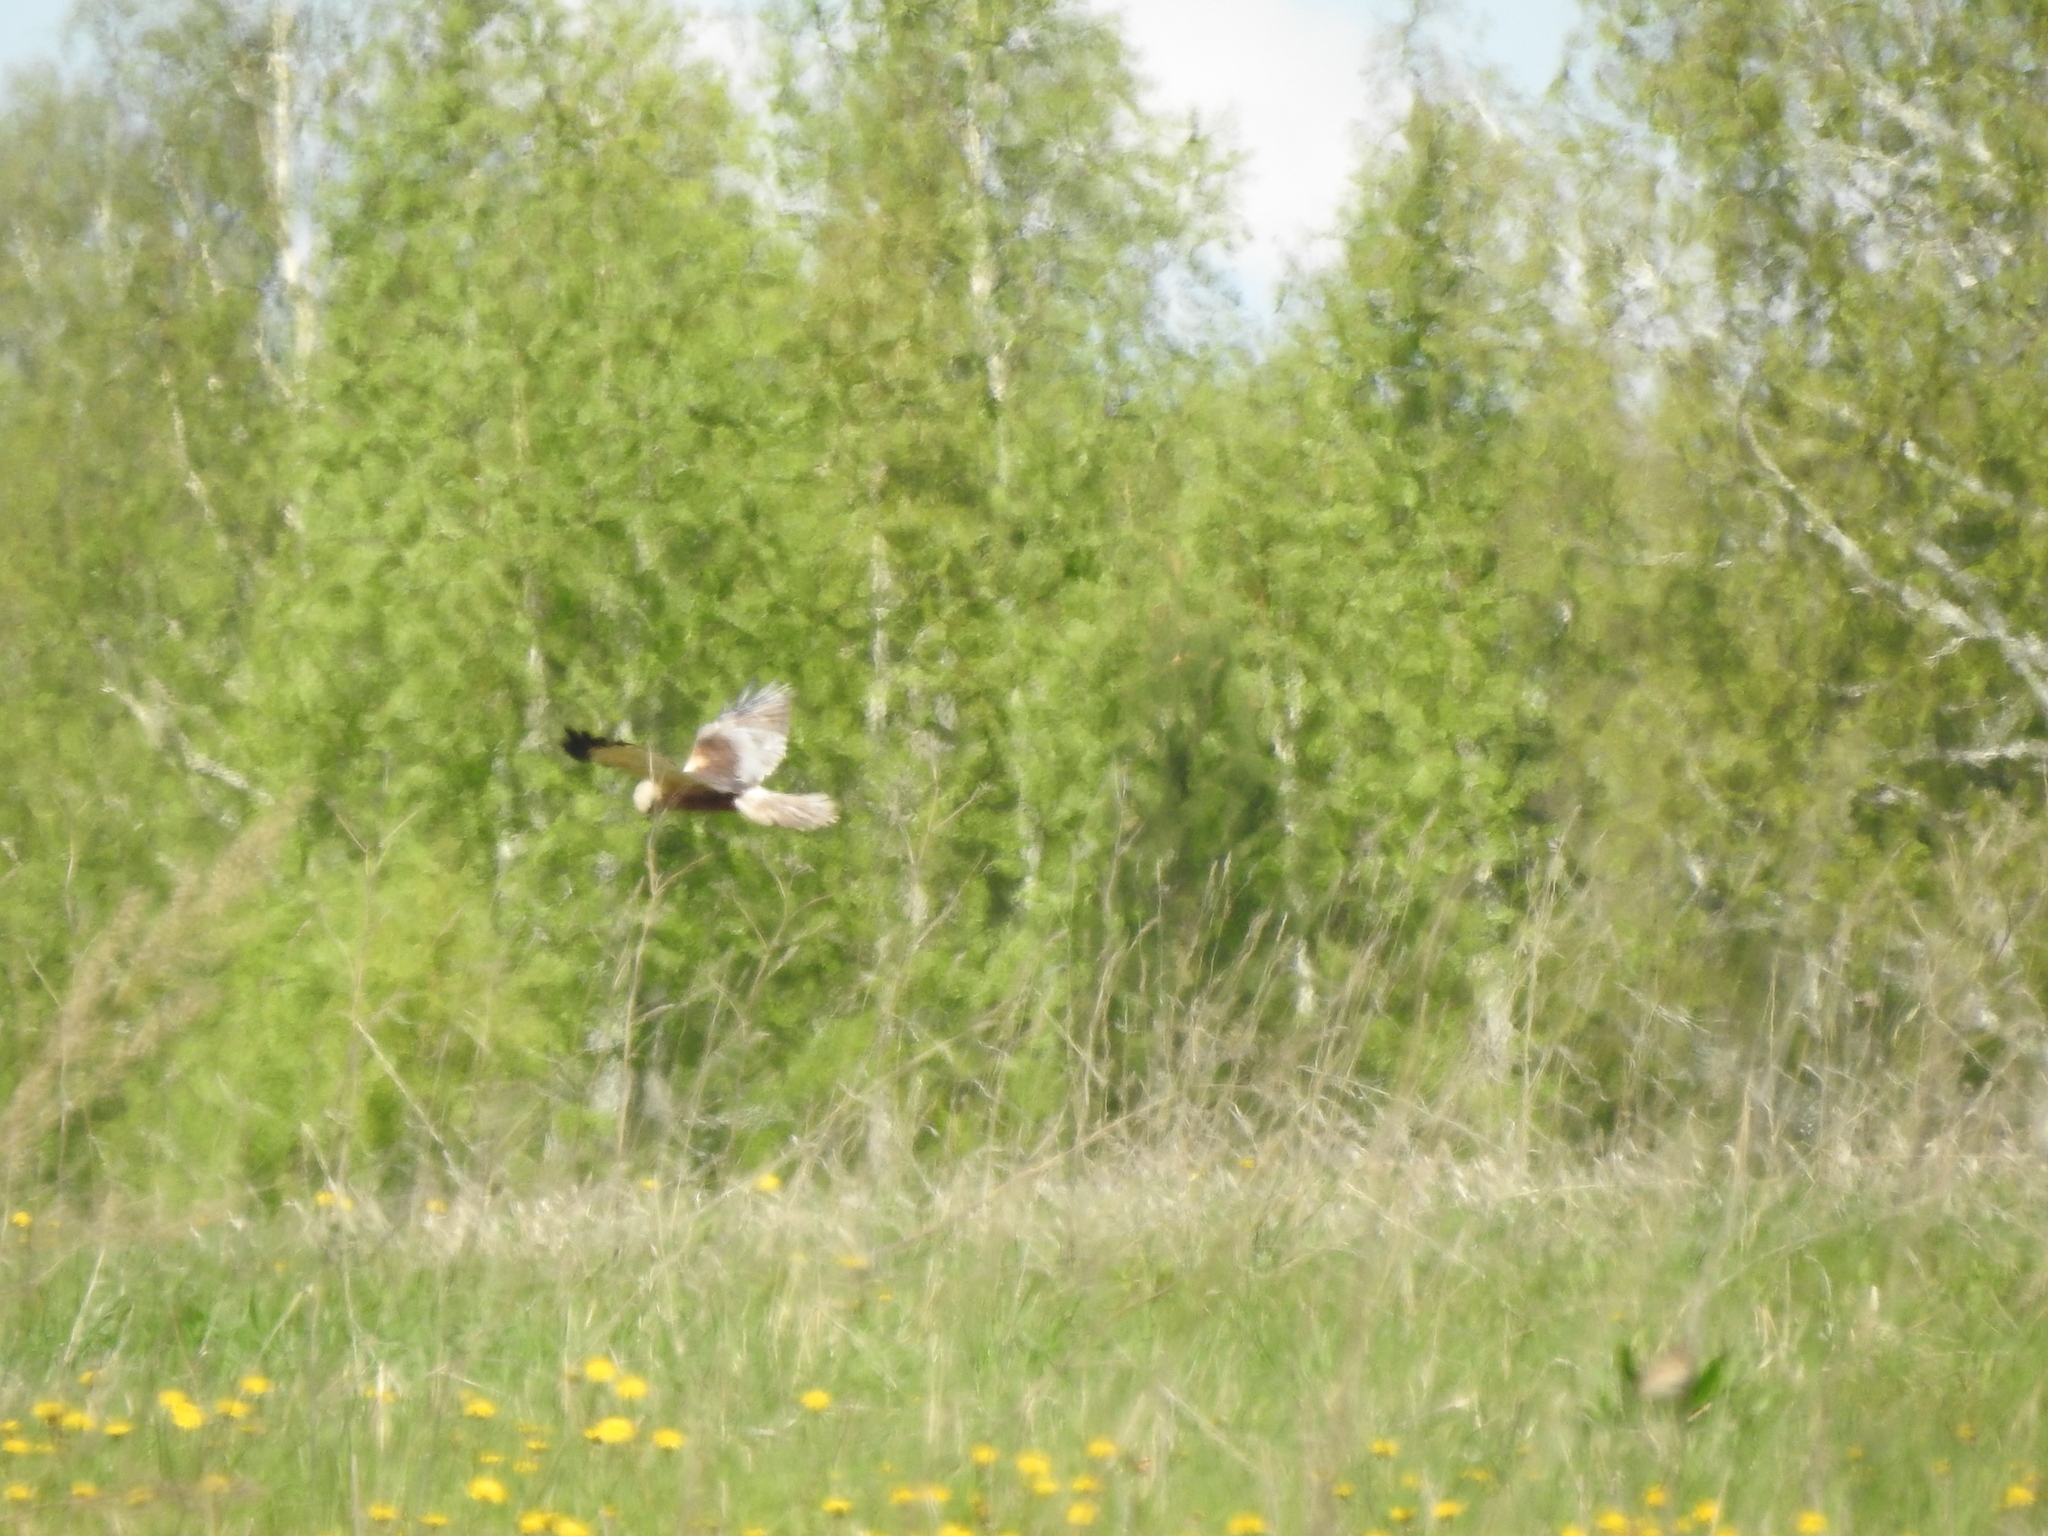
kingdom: Animalia
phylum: Chordata
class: Aves
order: Accipitriformes
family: Accipitridae
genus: Circus
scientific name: Circus aeruginosus
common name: Western marsh harrier
